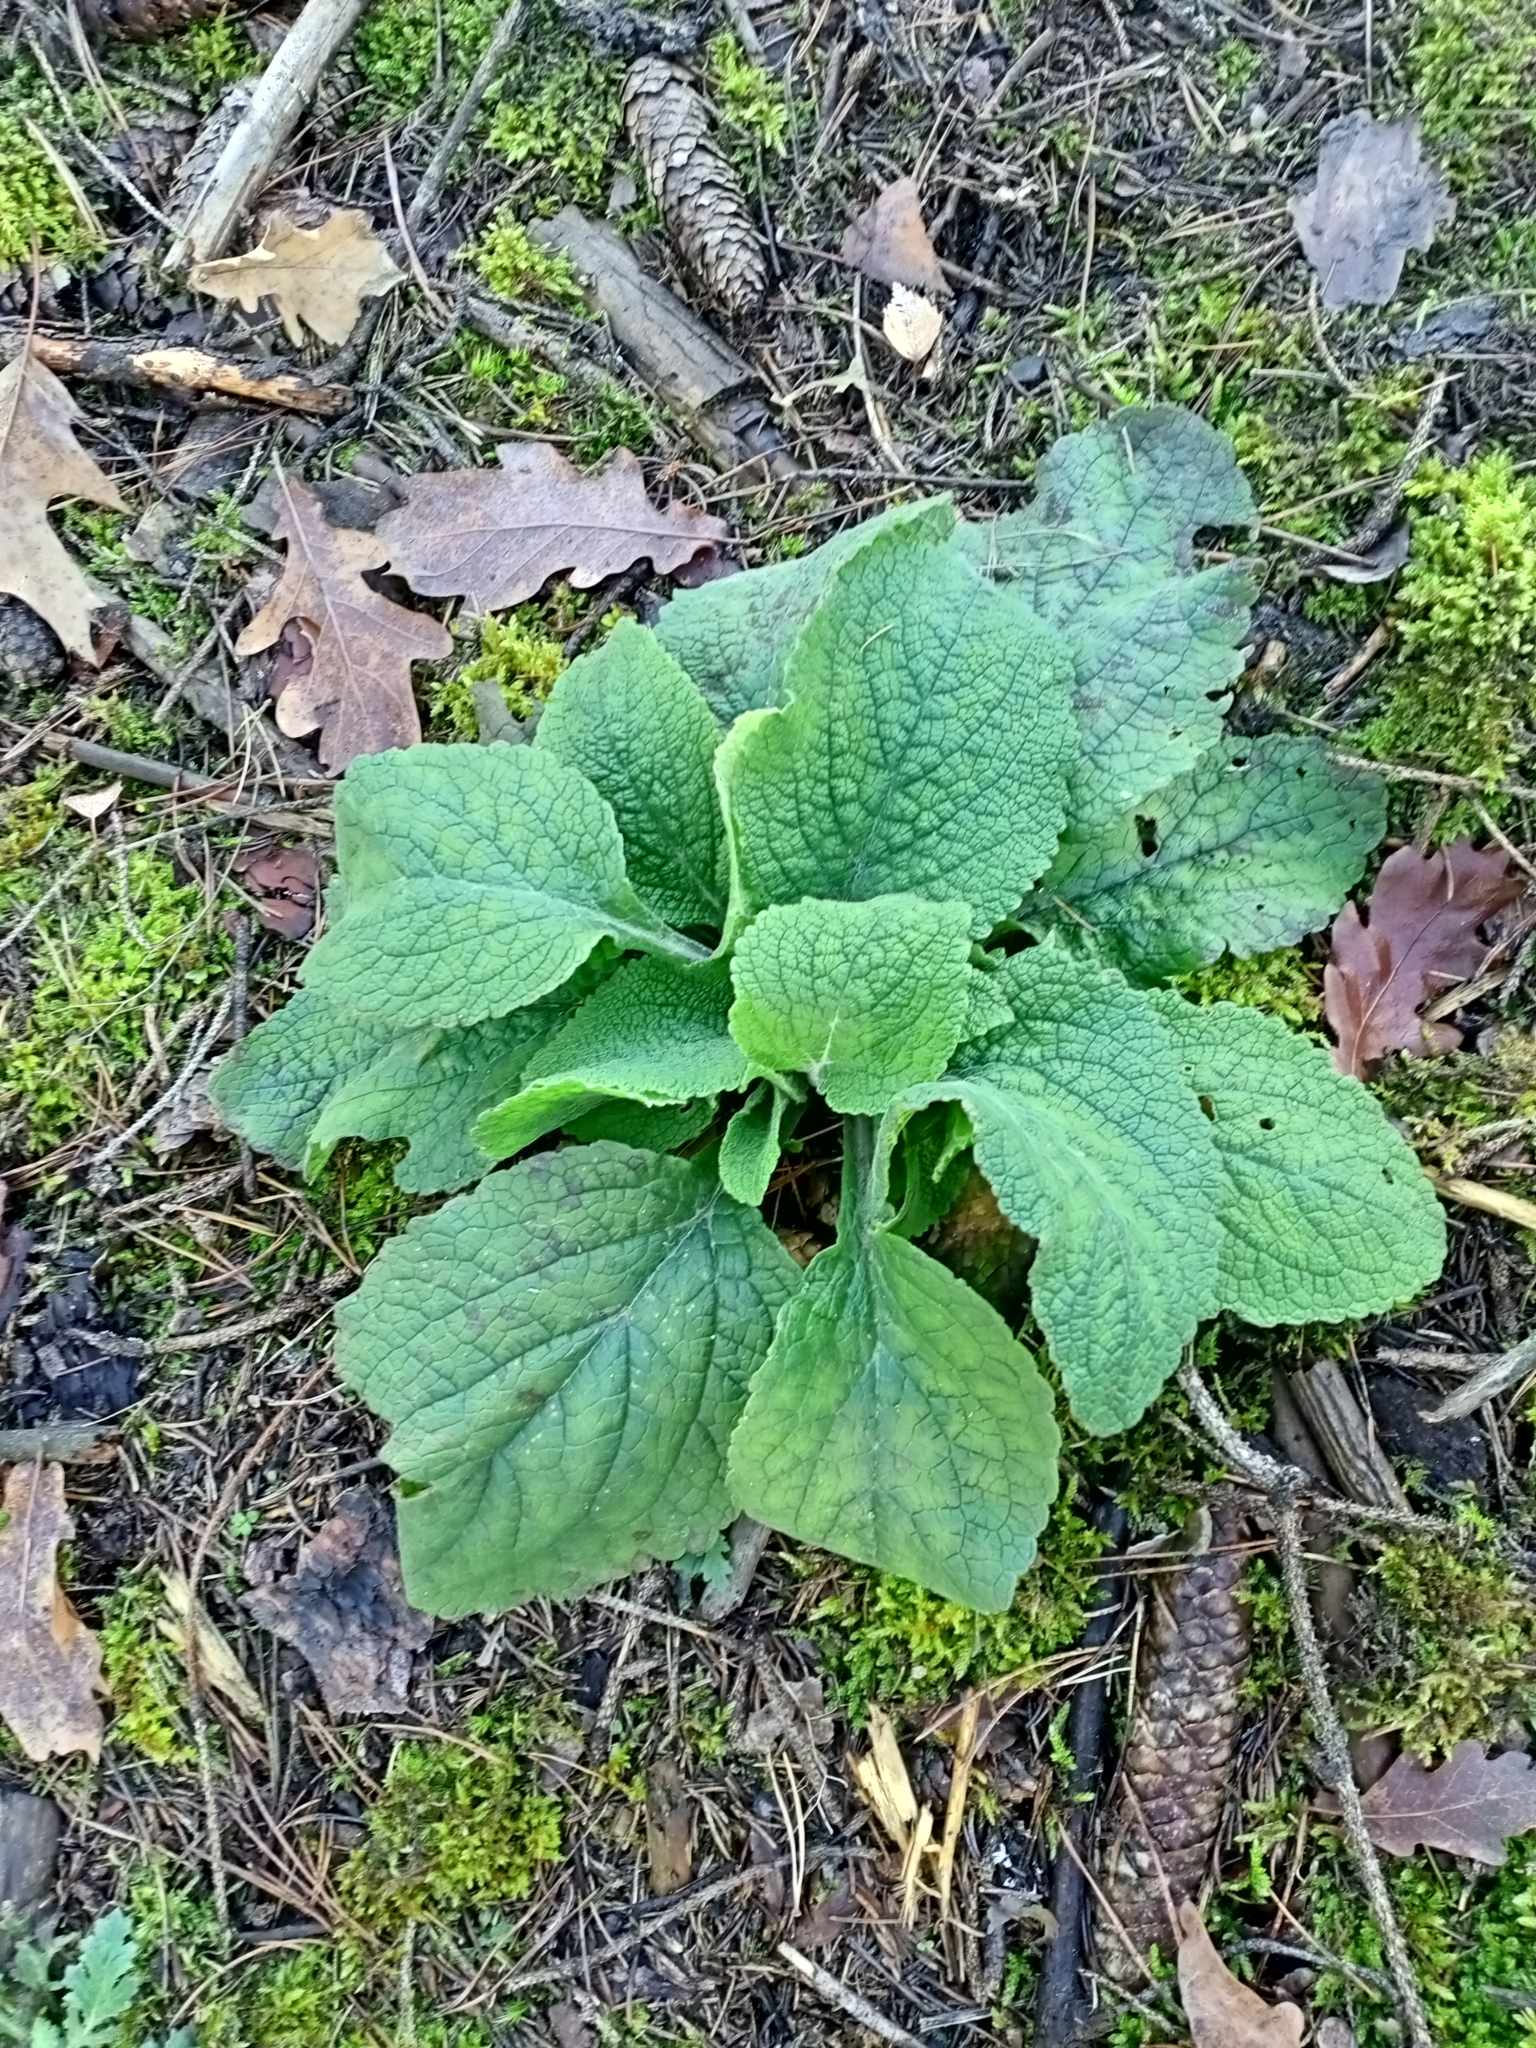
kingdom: Plantae
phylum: Tracheophyta
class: Magnoliopsida
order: Lamiales
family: Plantaginaceae
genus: Digitalis
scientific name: Digitalis purpurea
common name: Foxglove
